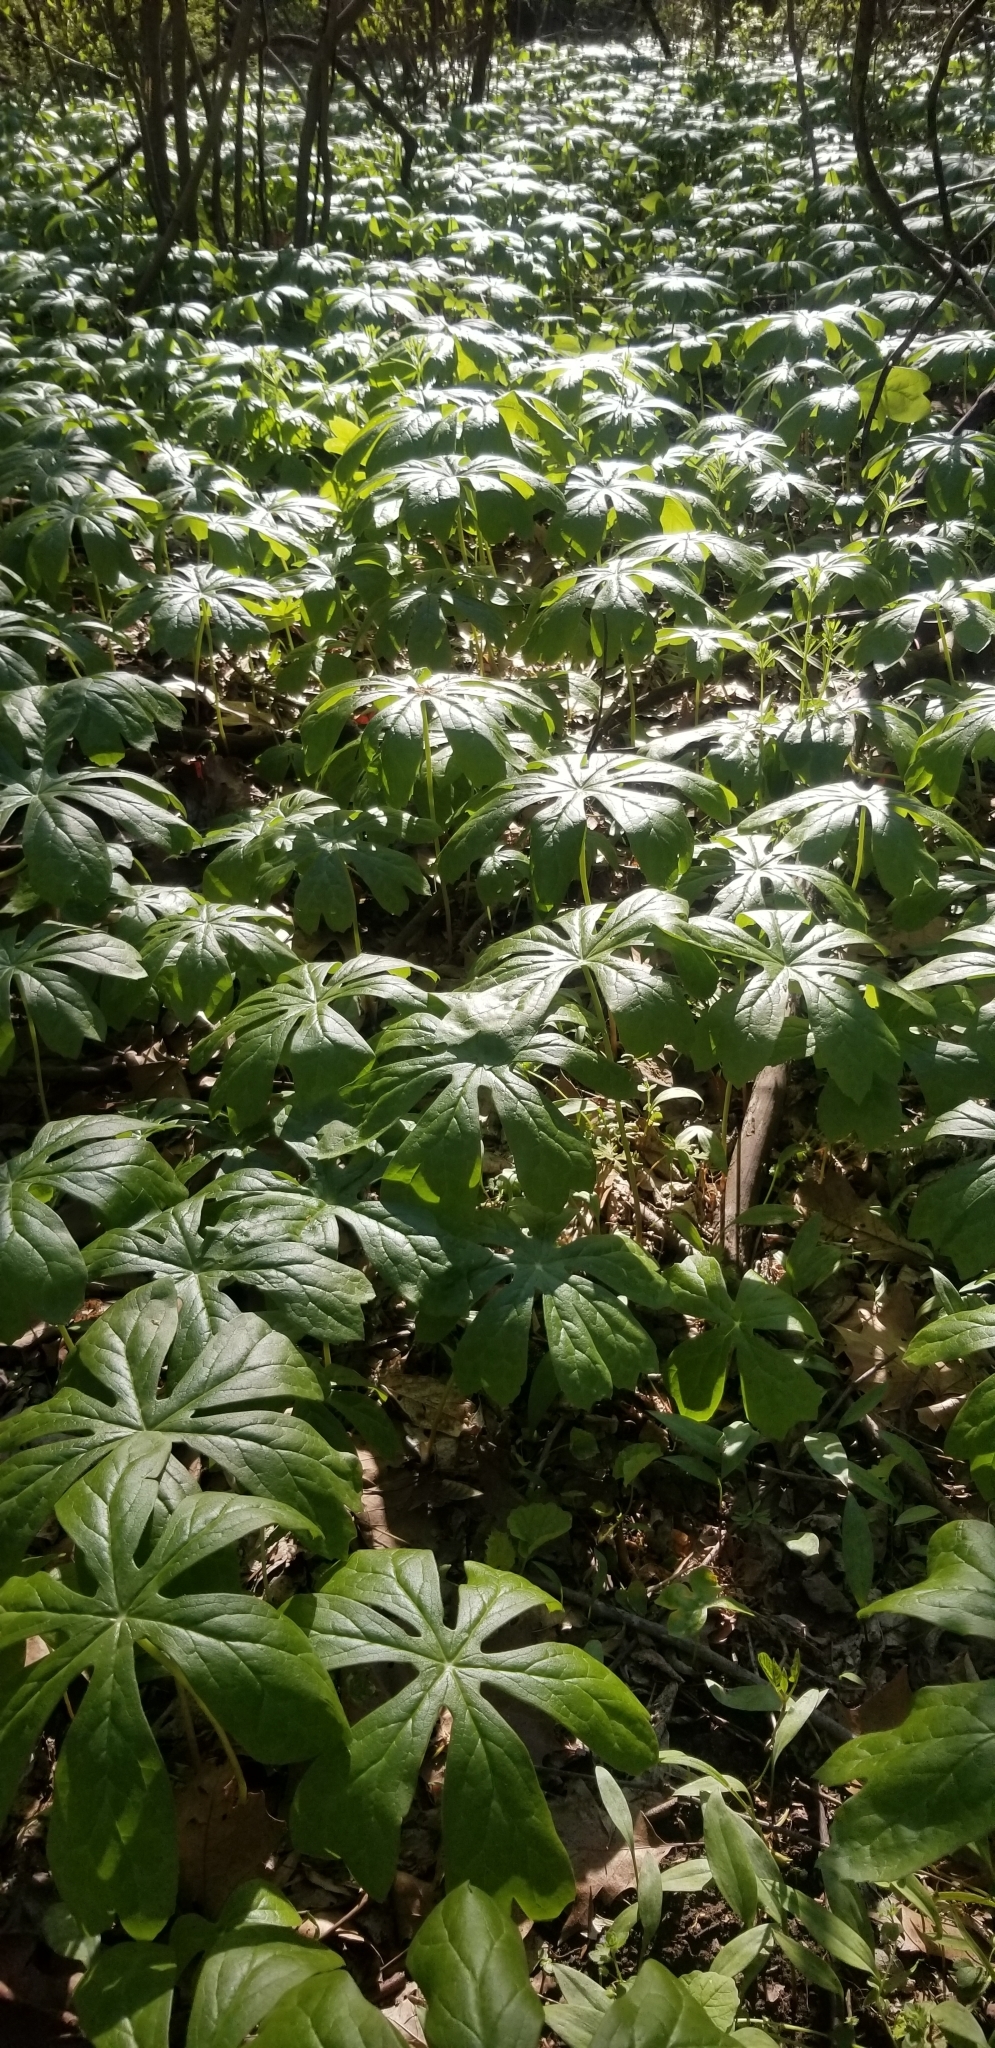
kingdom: Plantae
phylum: Tracheophyta
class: Magnoliopsida
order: Ranunculales
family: Berberidaceae
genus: Podophyllum
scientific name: Podophyllum peltatum
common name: Wild mandrake
